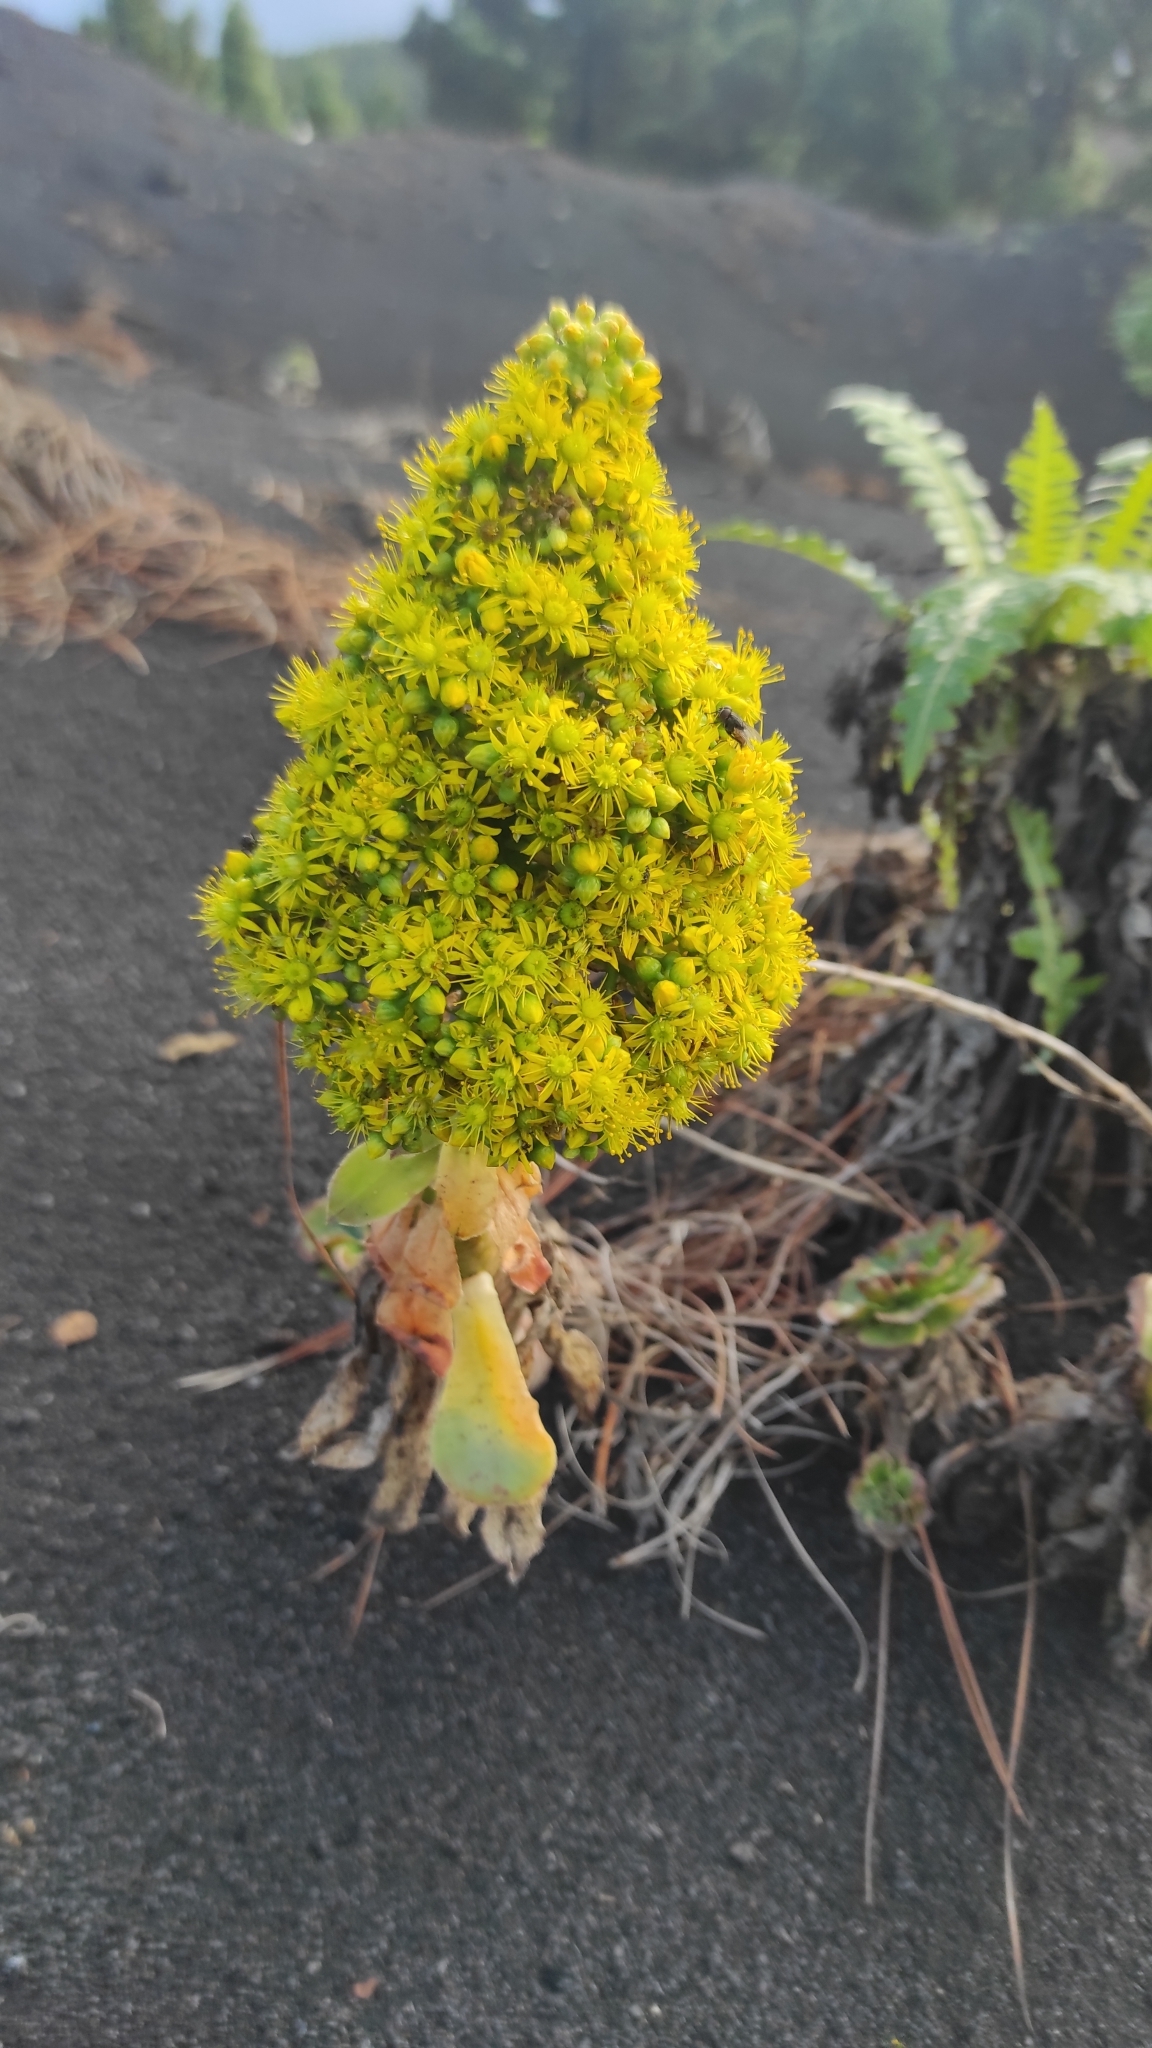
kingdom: Plantae
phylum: Tracheophyta
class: Magnoliopsida
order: Saxifragales
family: Crassulaceae
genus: Aeonium
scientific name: Aeonium arboreum
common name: Tree aeonium
